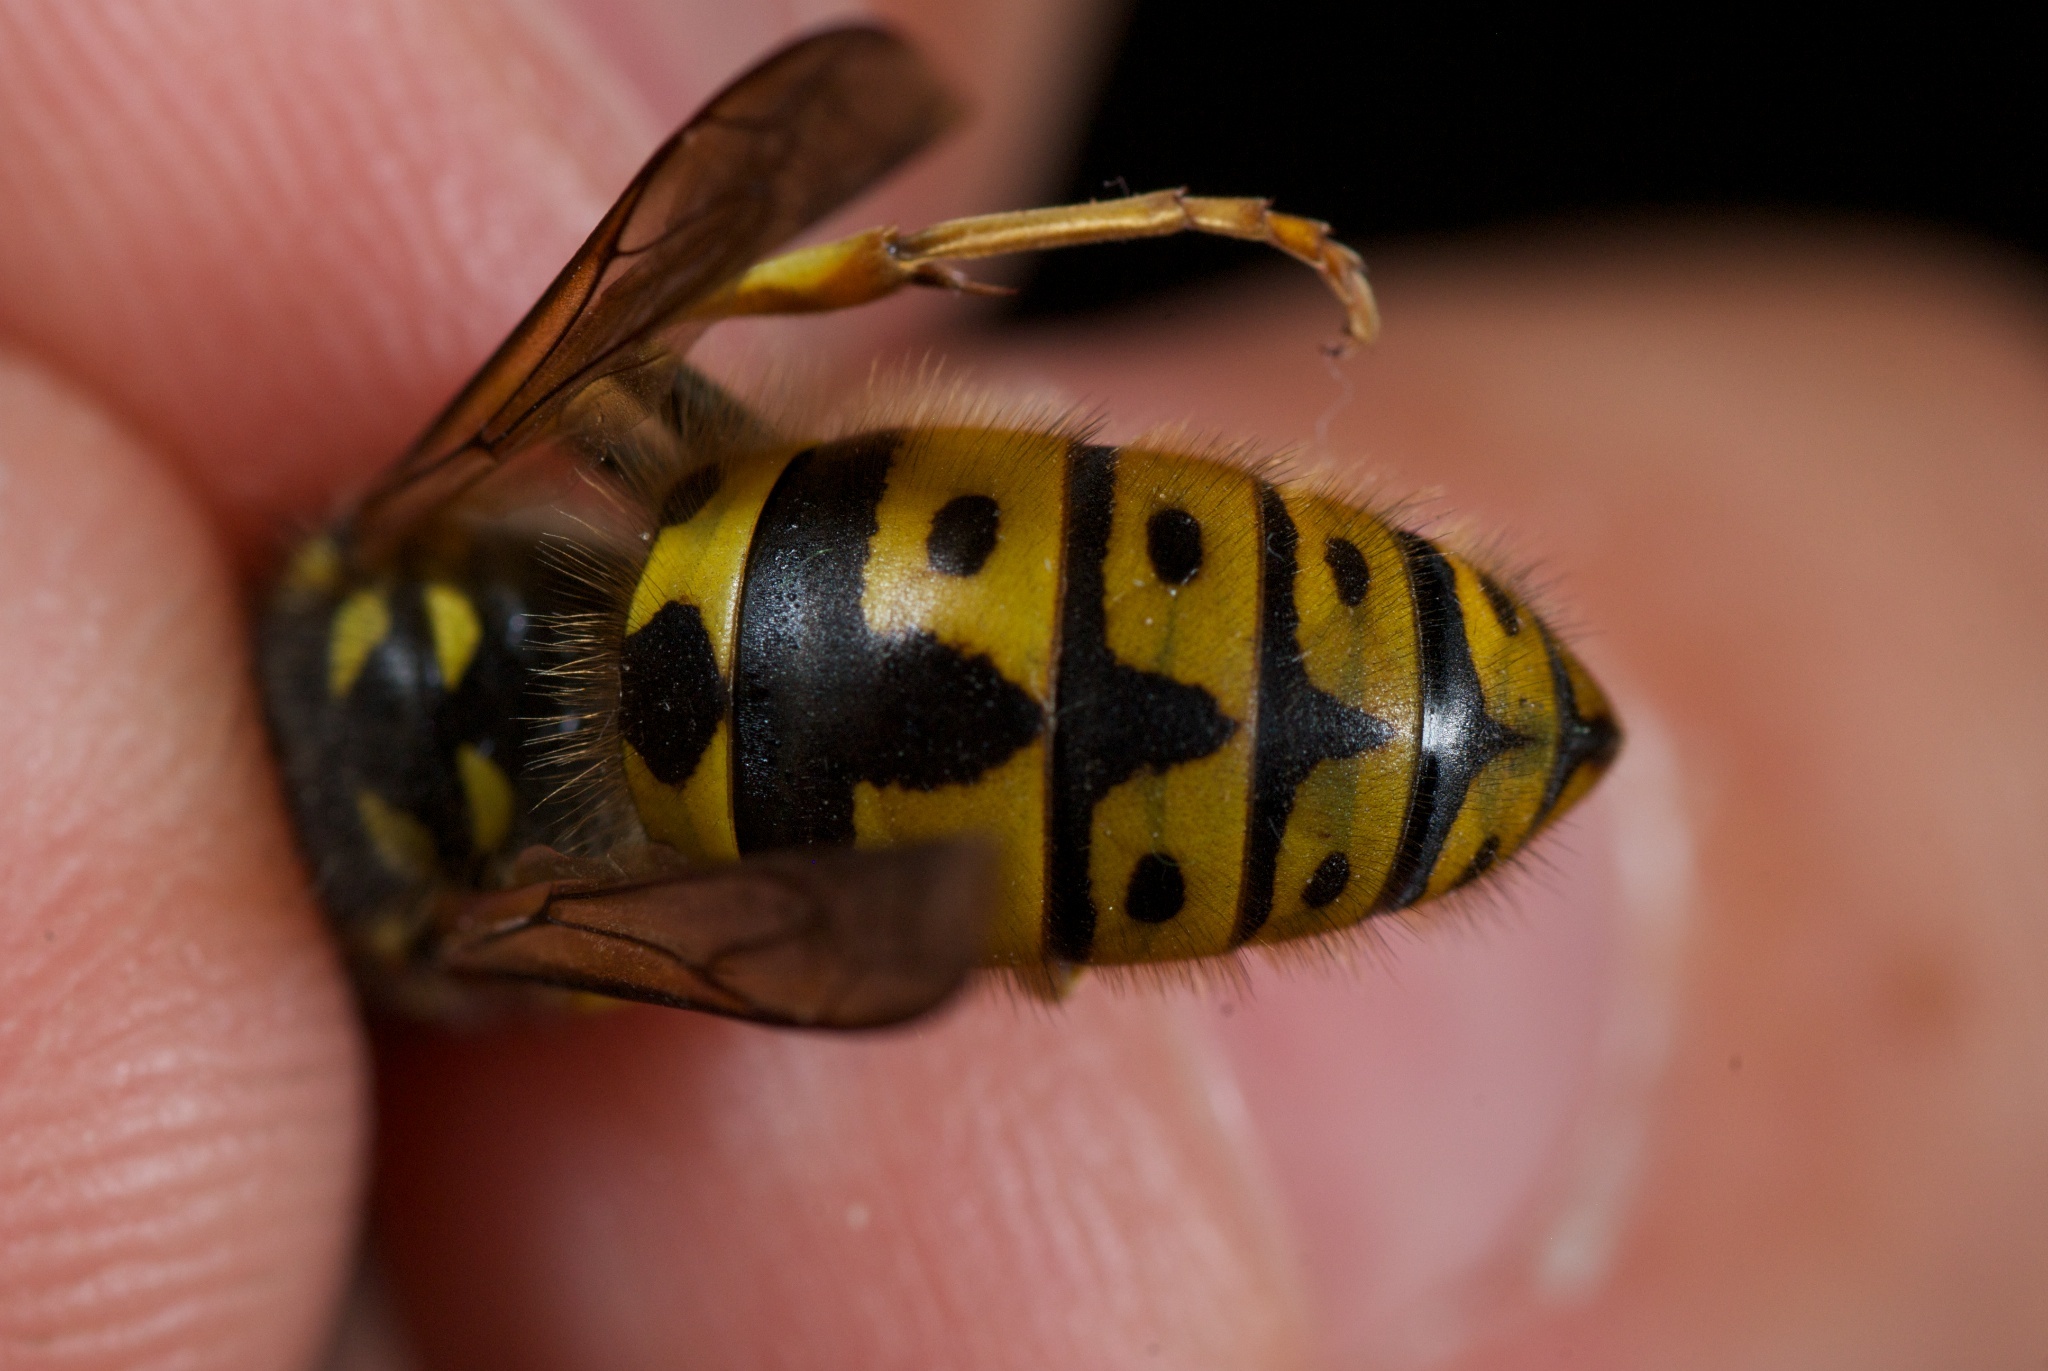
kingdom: Animalia
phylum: Arthropoda
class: Insecta
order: Hymenoptera
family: Vespidae
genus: Vespula
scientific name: Vespula germanica
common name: German wasp
